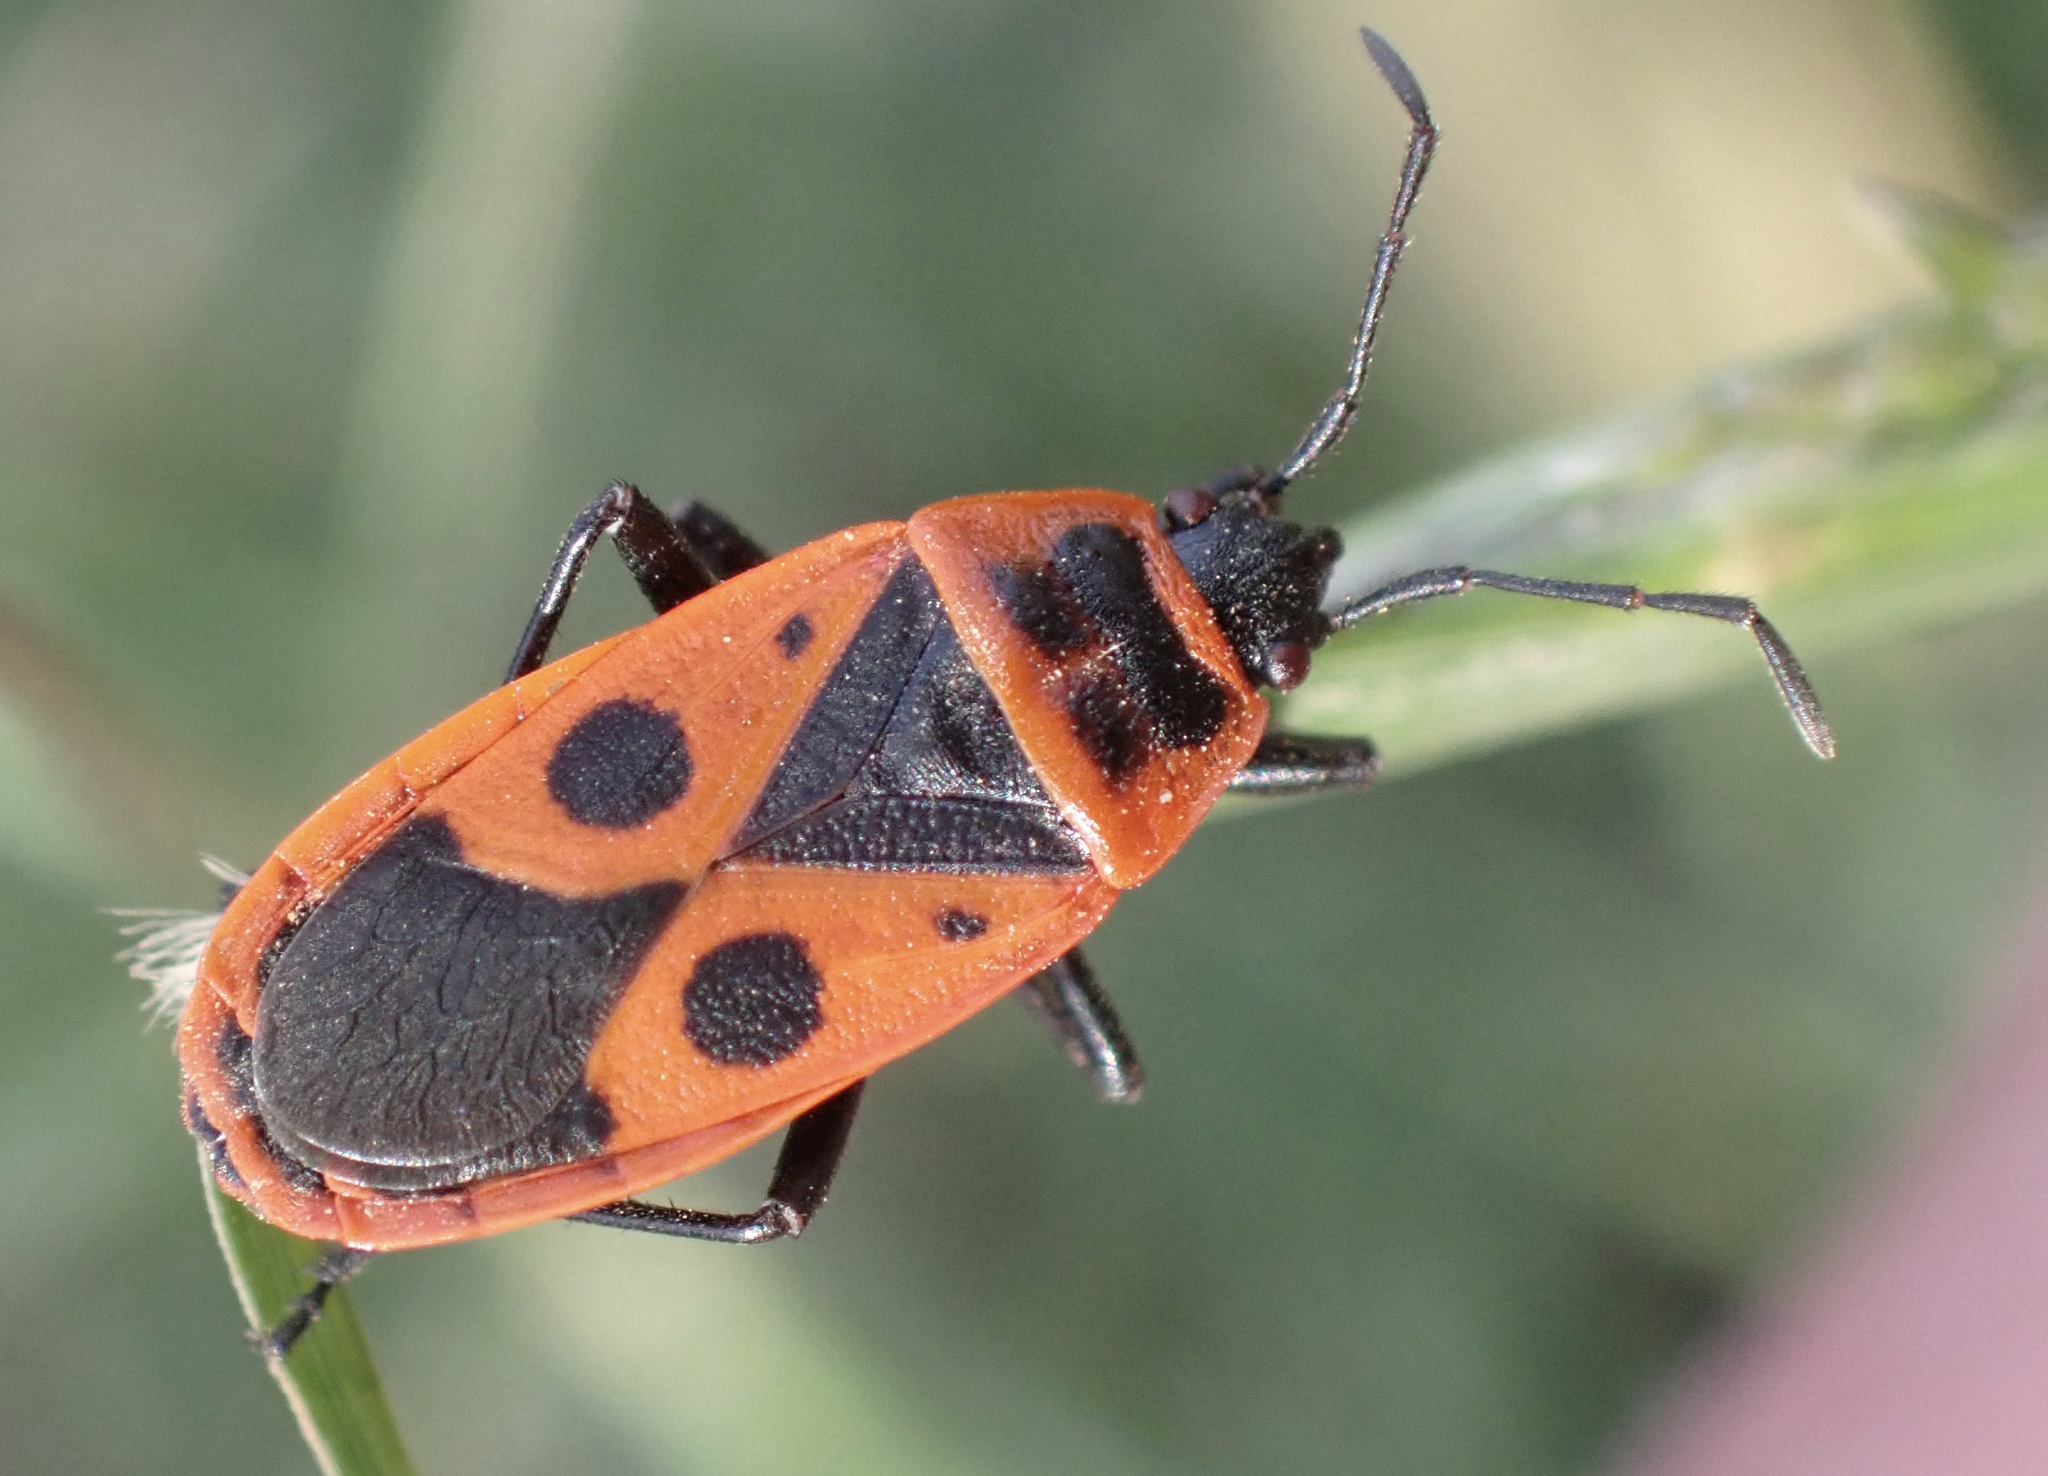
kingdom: Animalia
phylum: Arthropoda
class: Insecta
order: Hemiptera
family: Pyrrhocoridae
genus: Pyrrhocoris
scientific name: Pyrrhocoris apterus
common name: Firebug
